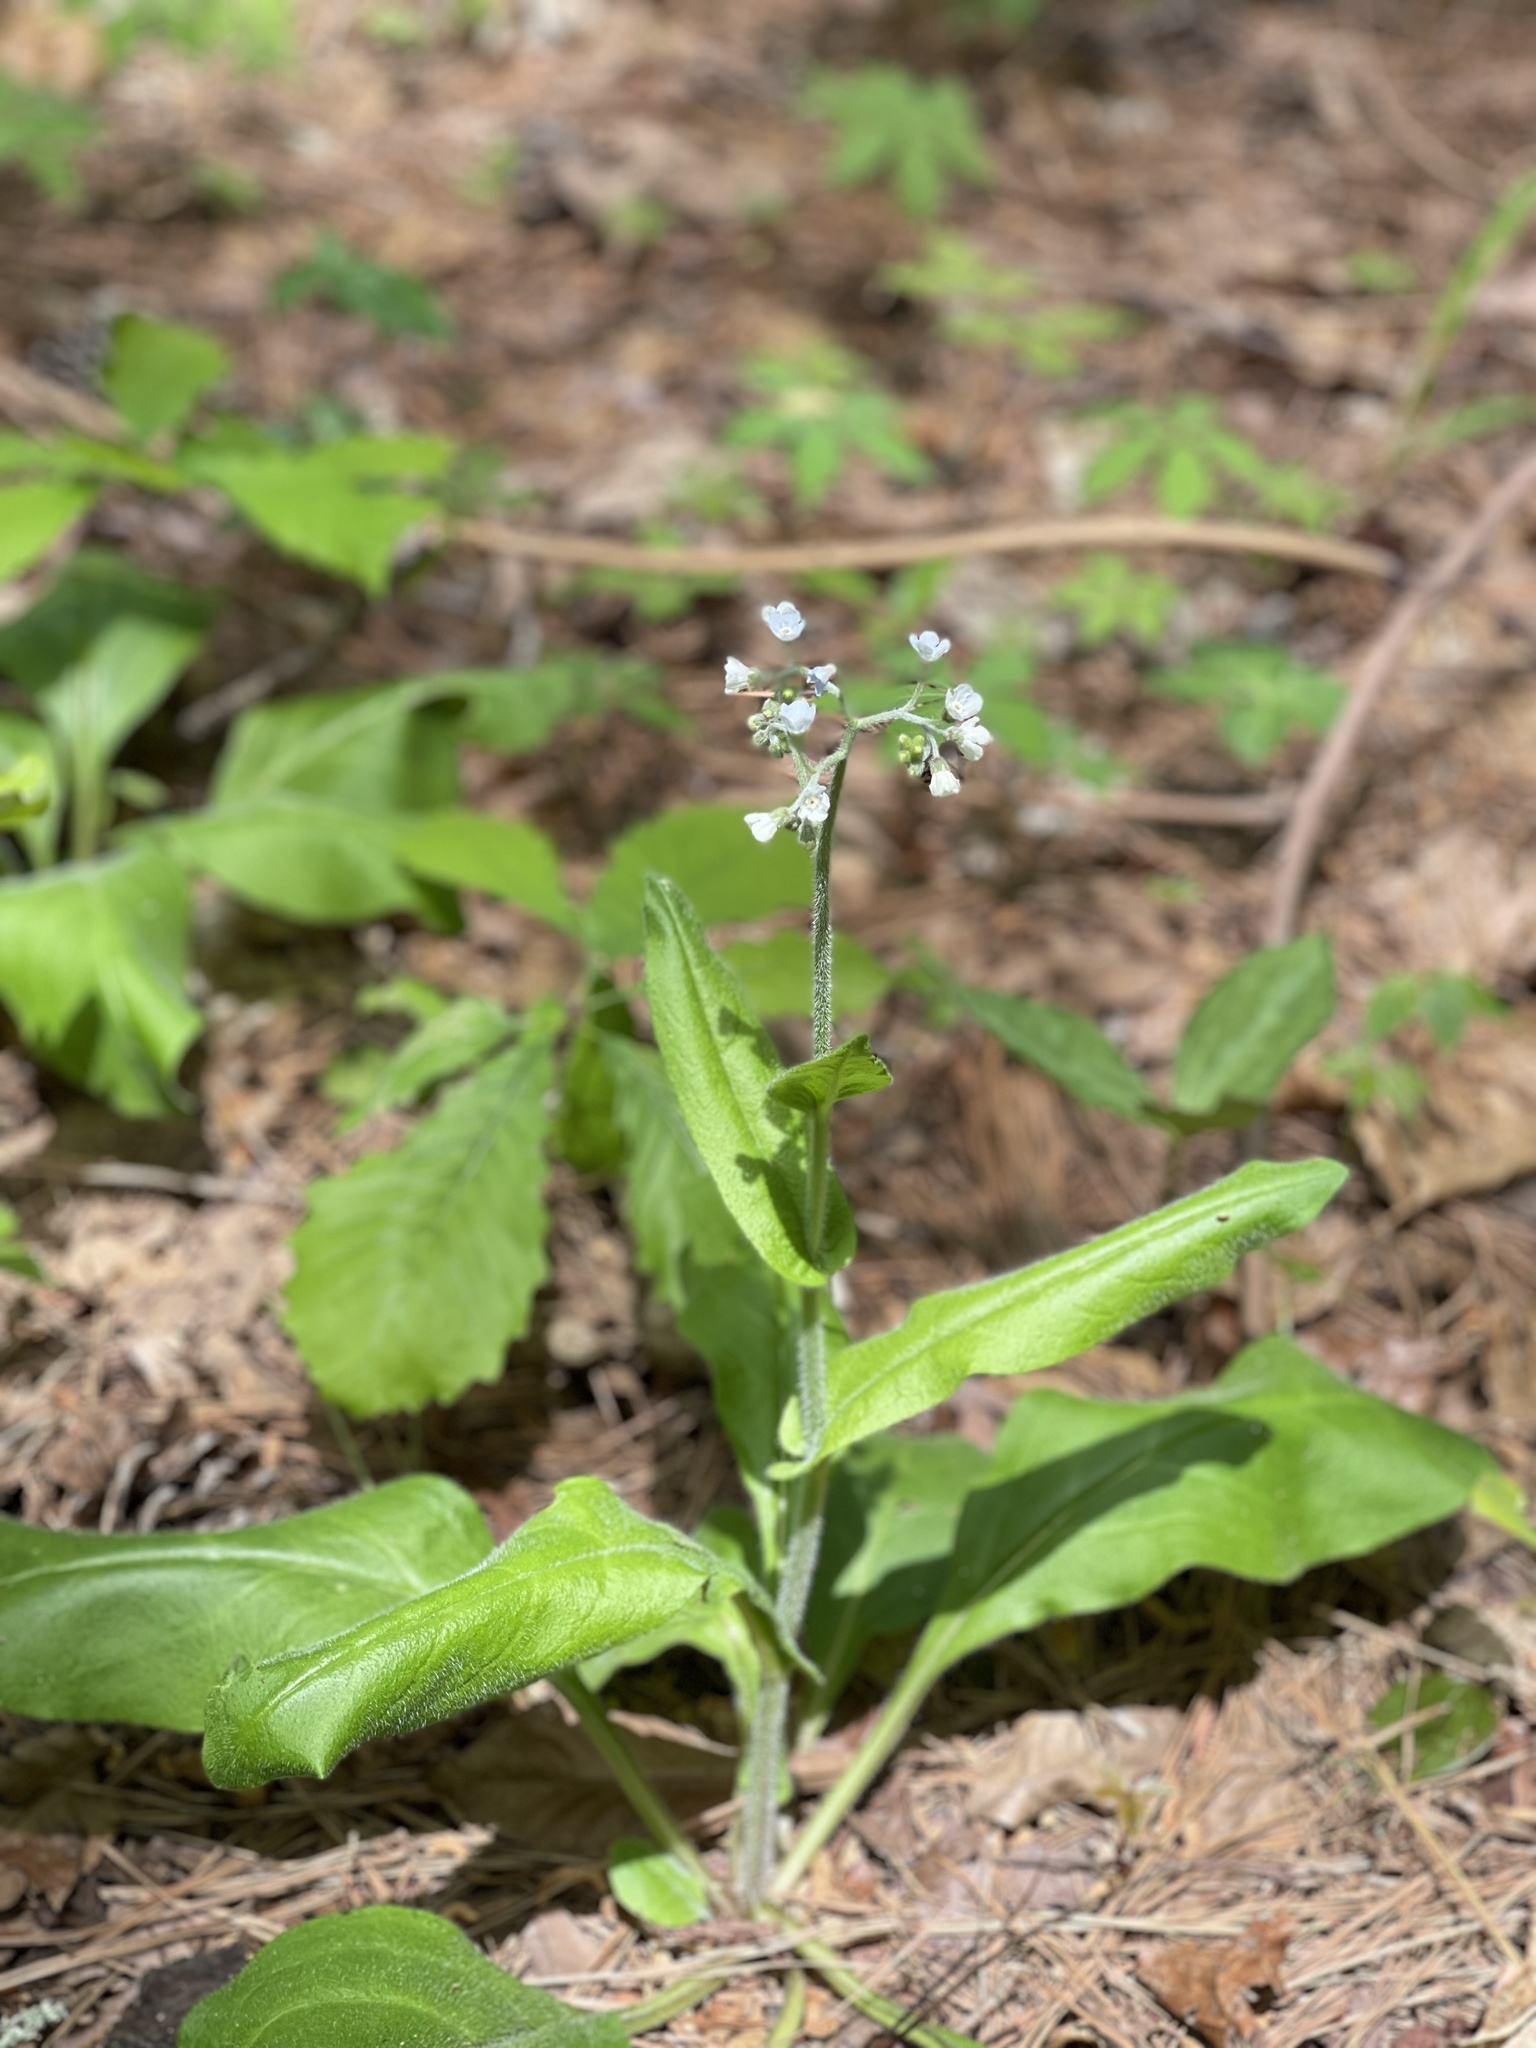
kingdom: Plantae
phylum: Tracheophyta
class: Magnoliopsida
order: Boraginales
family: Boraginaceae
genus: Andersonglossum
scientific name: Andersonglossum virginianum
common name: Wild comfrey
